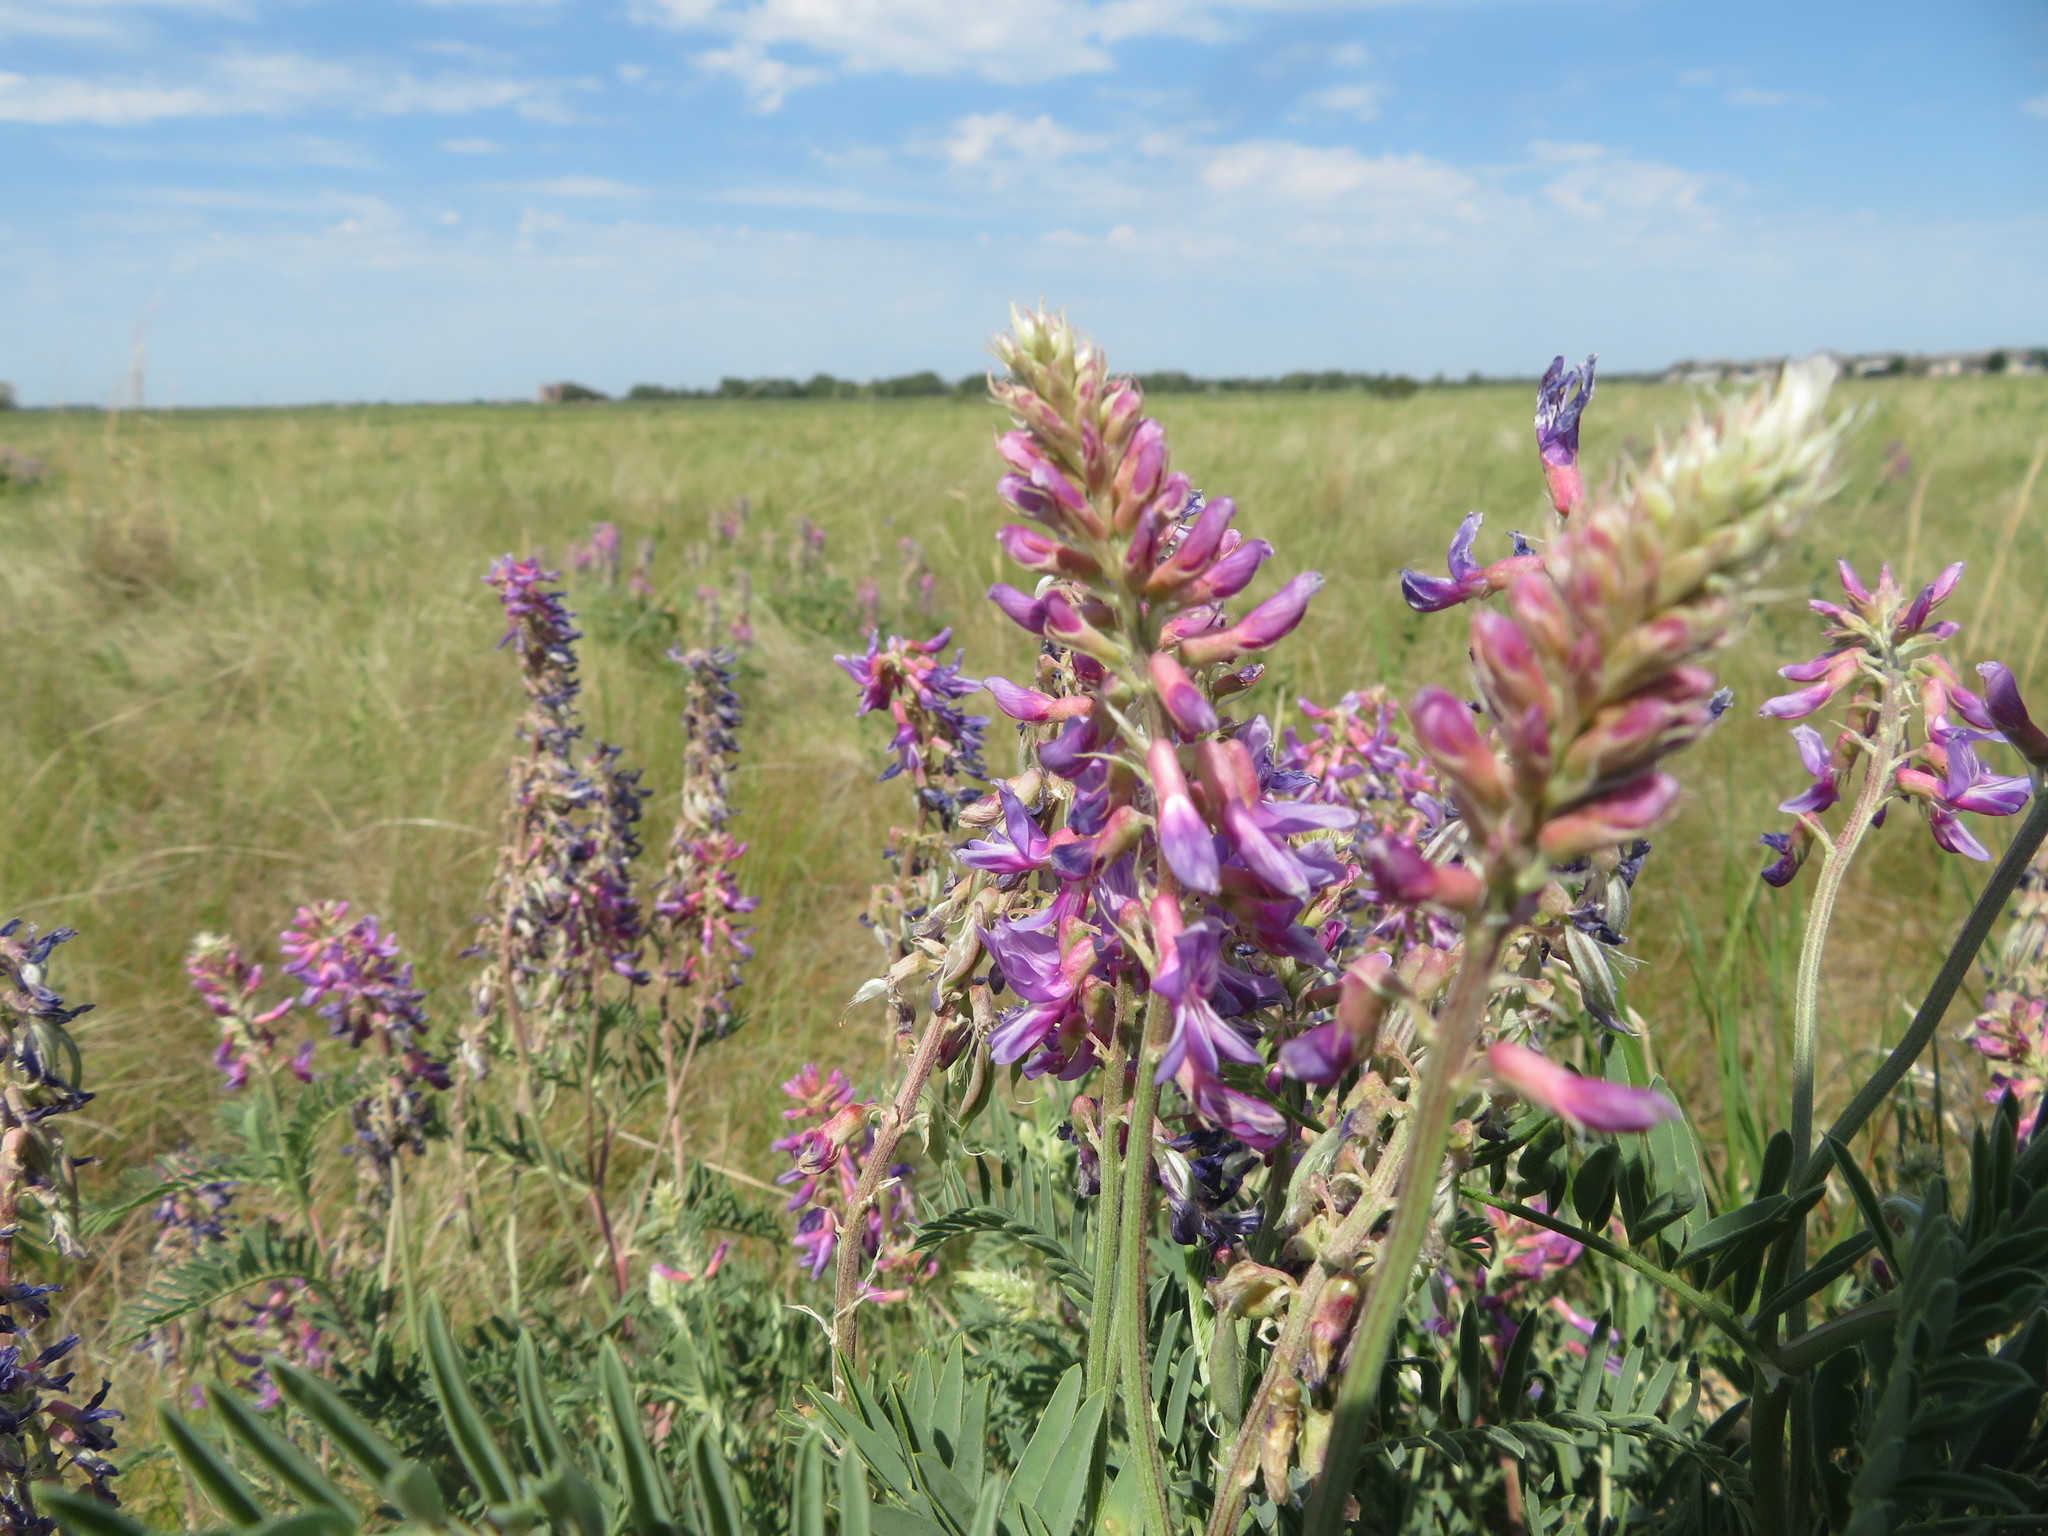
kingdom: Plantae
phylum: Tracheophyta
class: Magnoliopsida
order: Fabales
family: Fabaceae
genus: Astragalus
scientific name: Astragalus bisulcatus
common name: Two-groove milk-vetch
